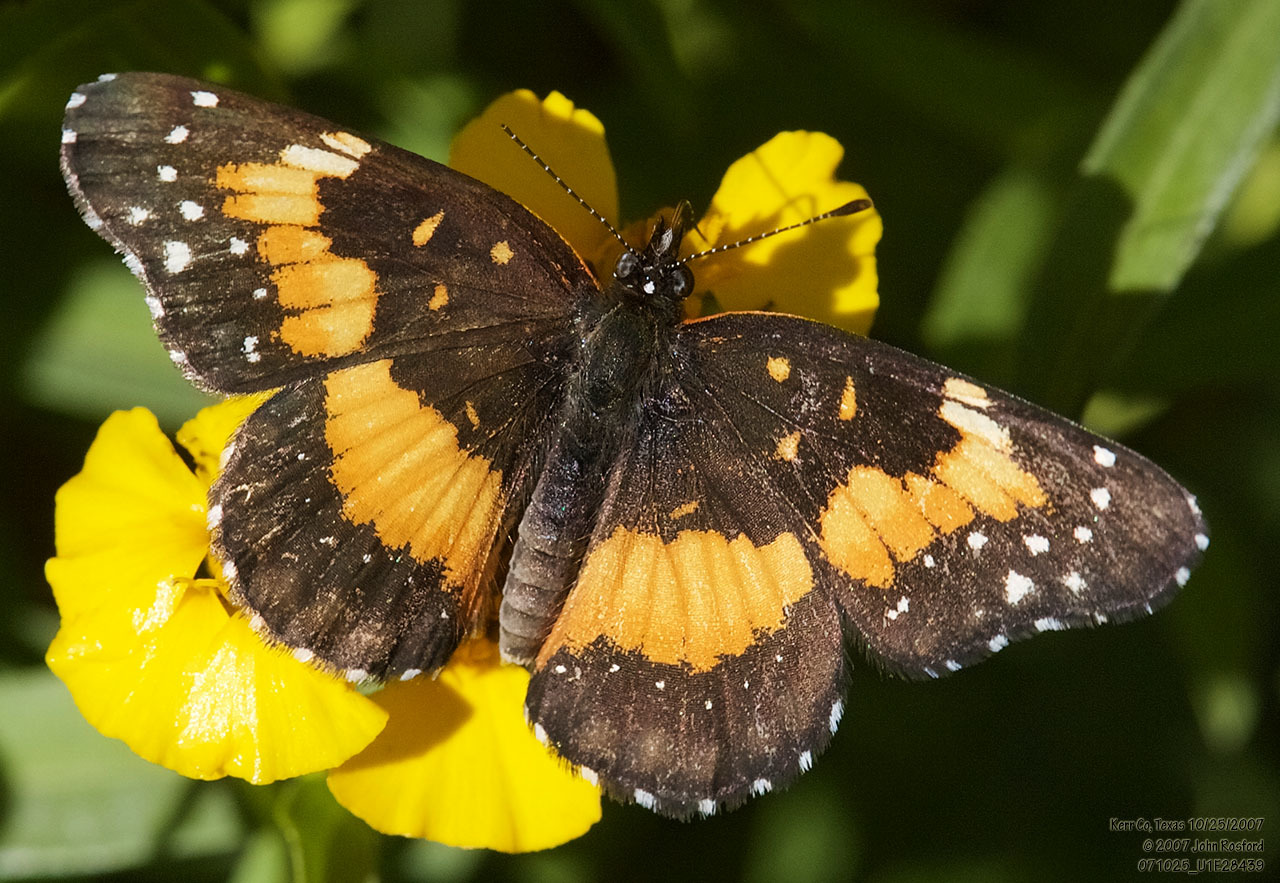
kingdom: Animalia
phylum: Arthropoda
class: Insecta
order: Lepidoptera
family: Nymphalidae
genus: Chlosyne
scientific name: Chlosyne lacinia
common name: Bordered patch
